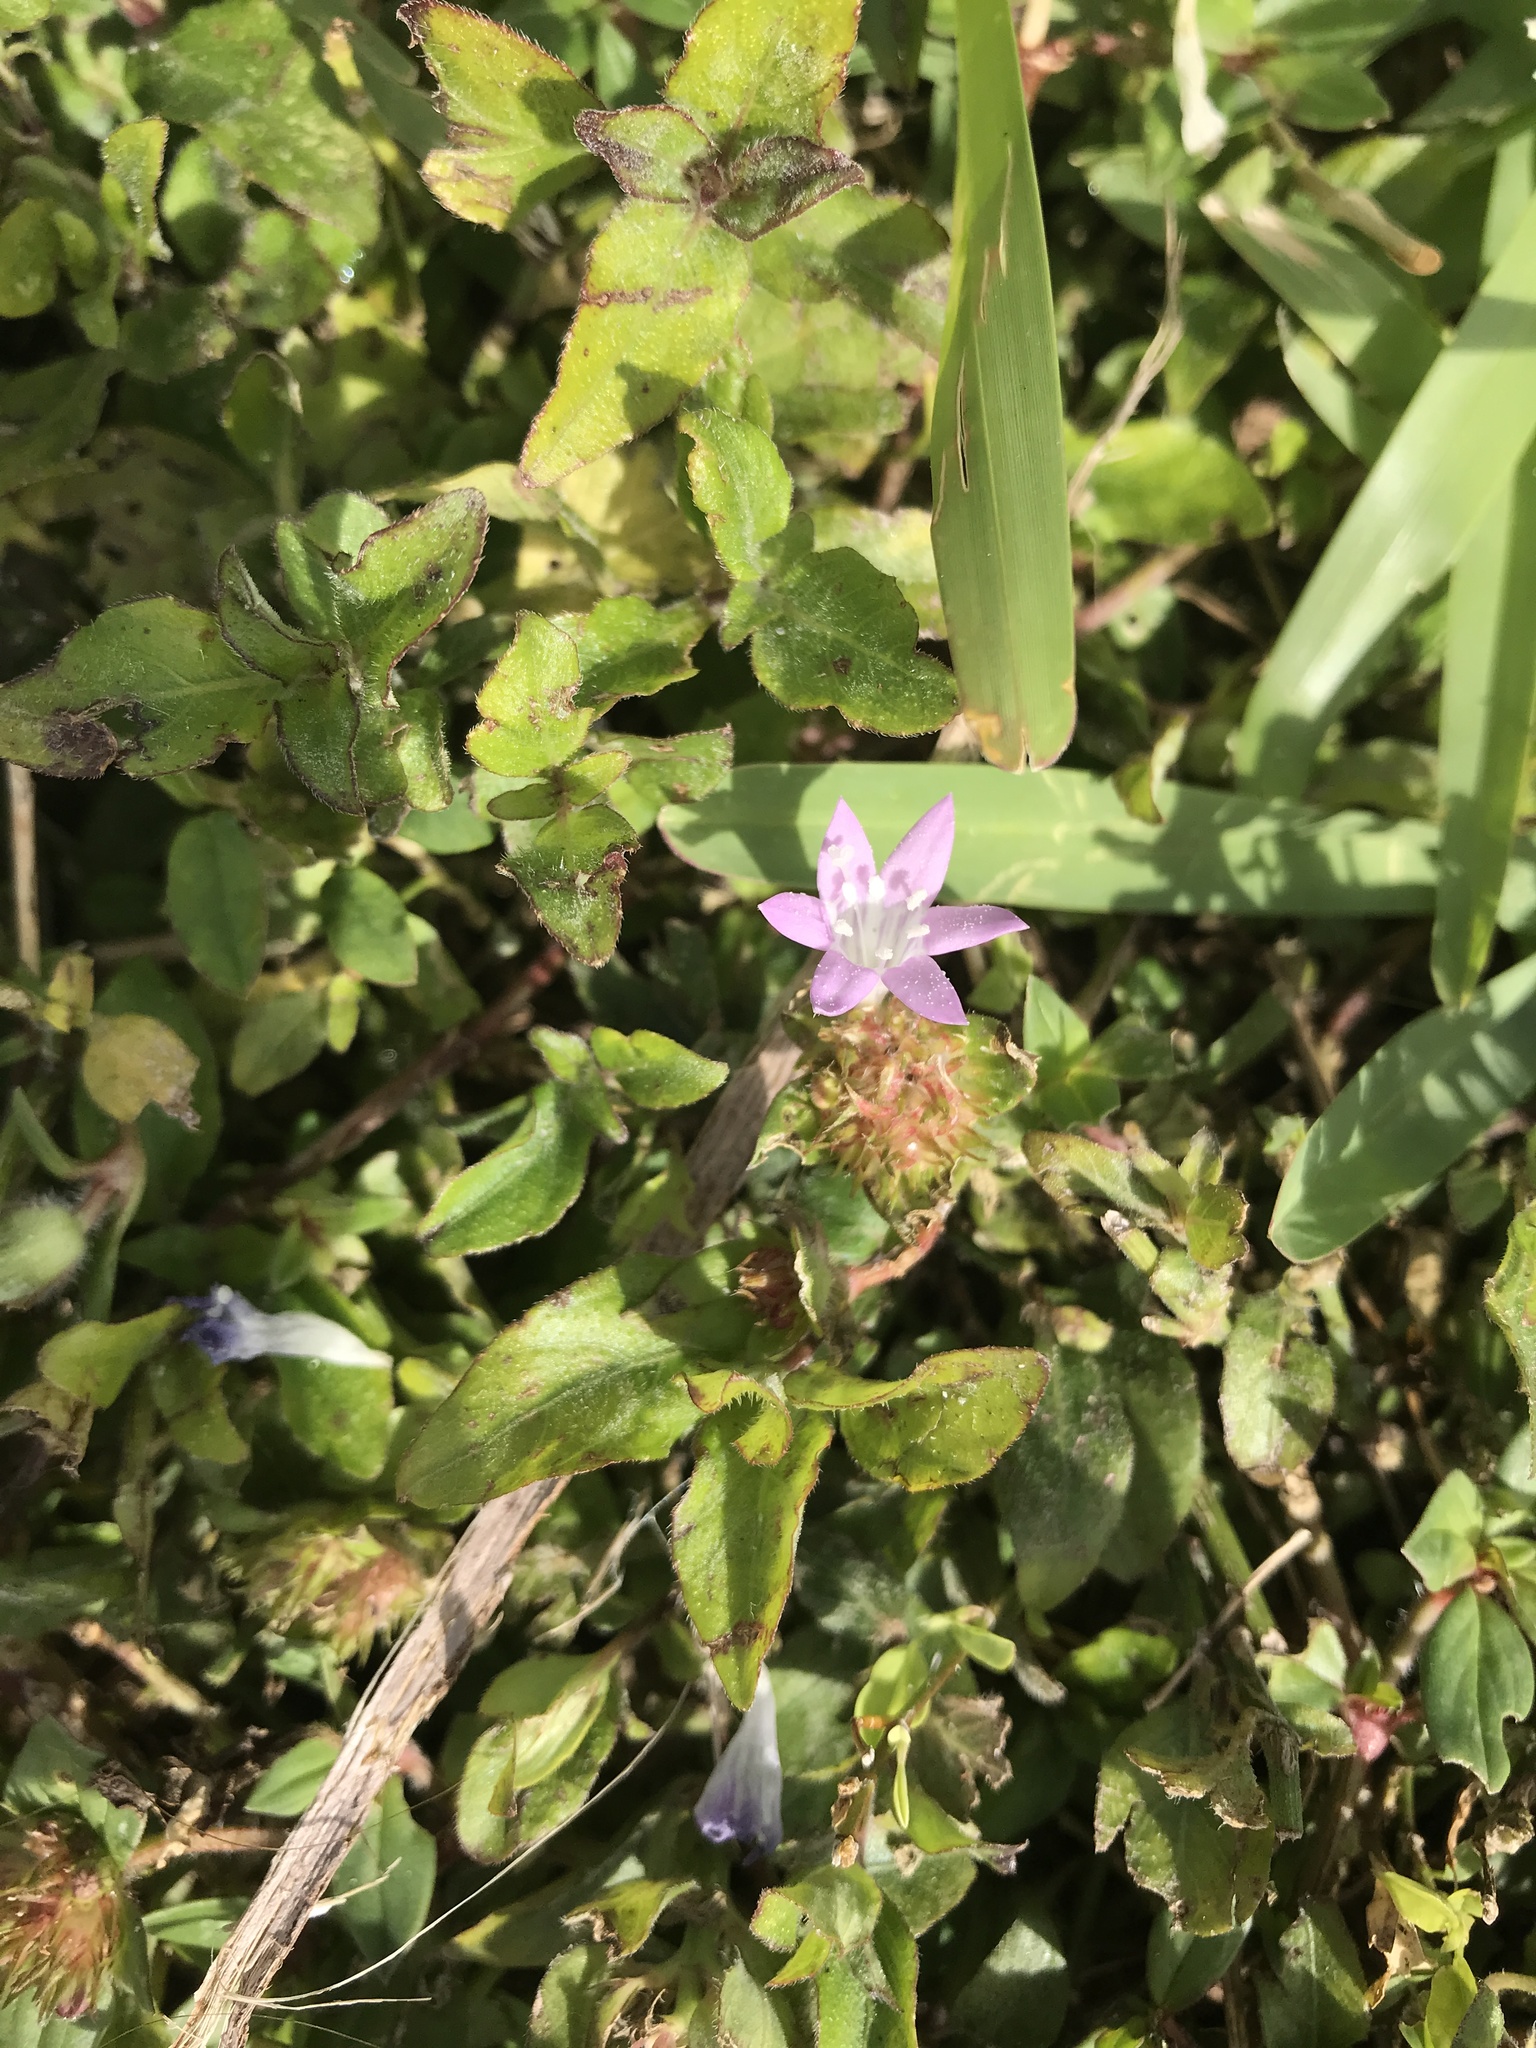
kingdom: Plantae
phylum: Tracheophyta
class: Magnoliopsida
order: Gentianales
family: Rubiaceae
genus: Richardia
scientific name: Richardia grandiflora
